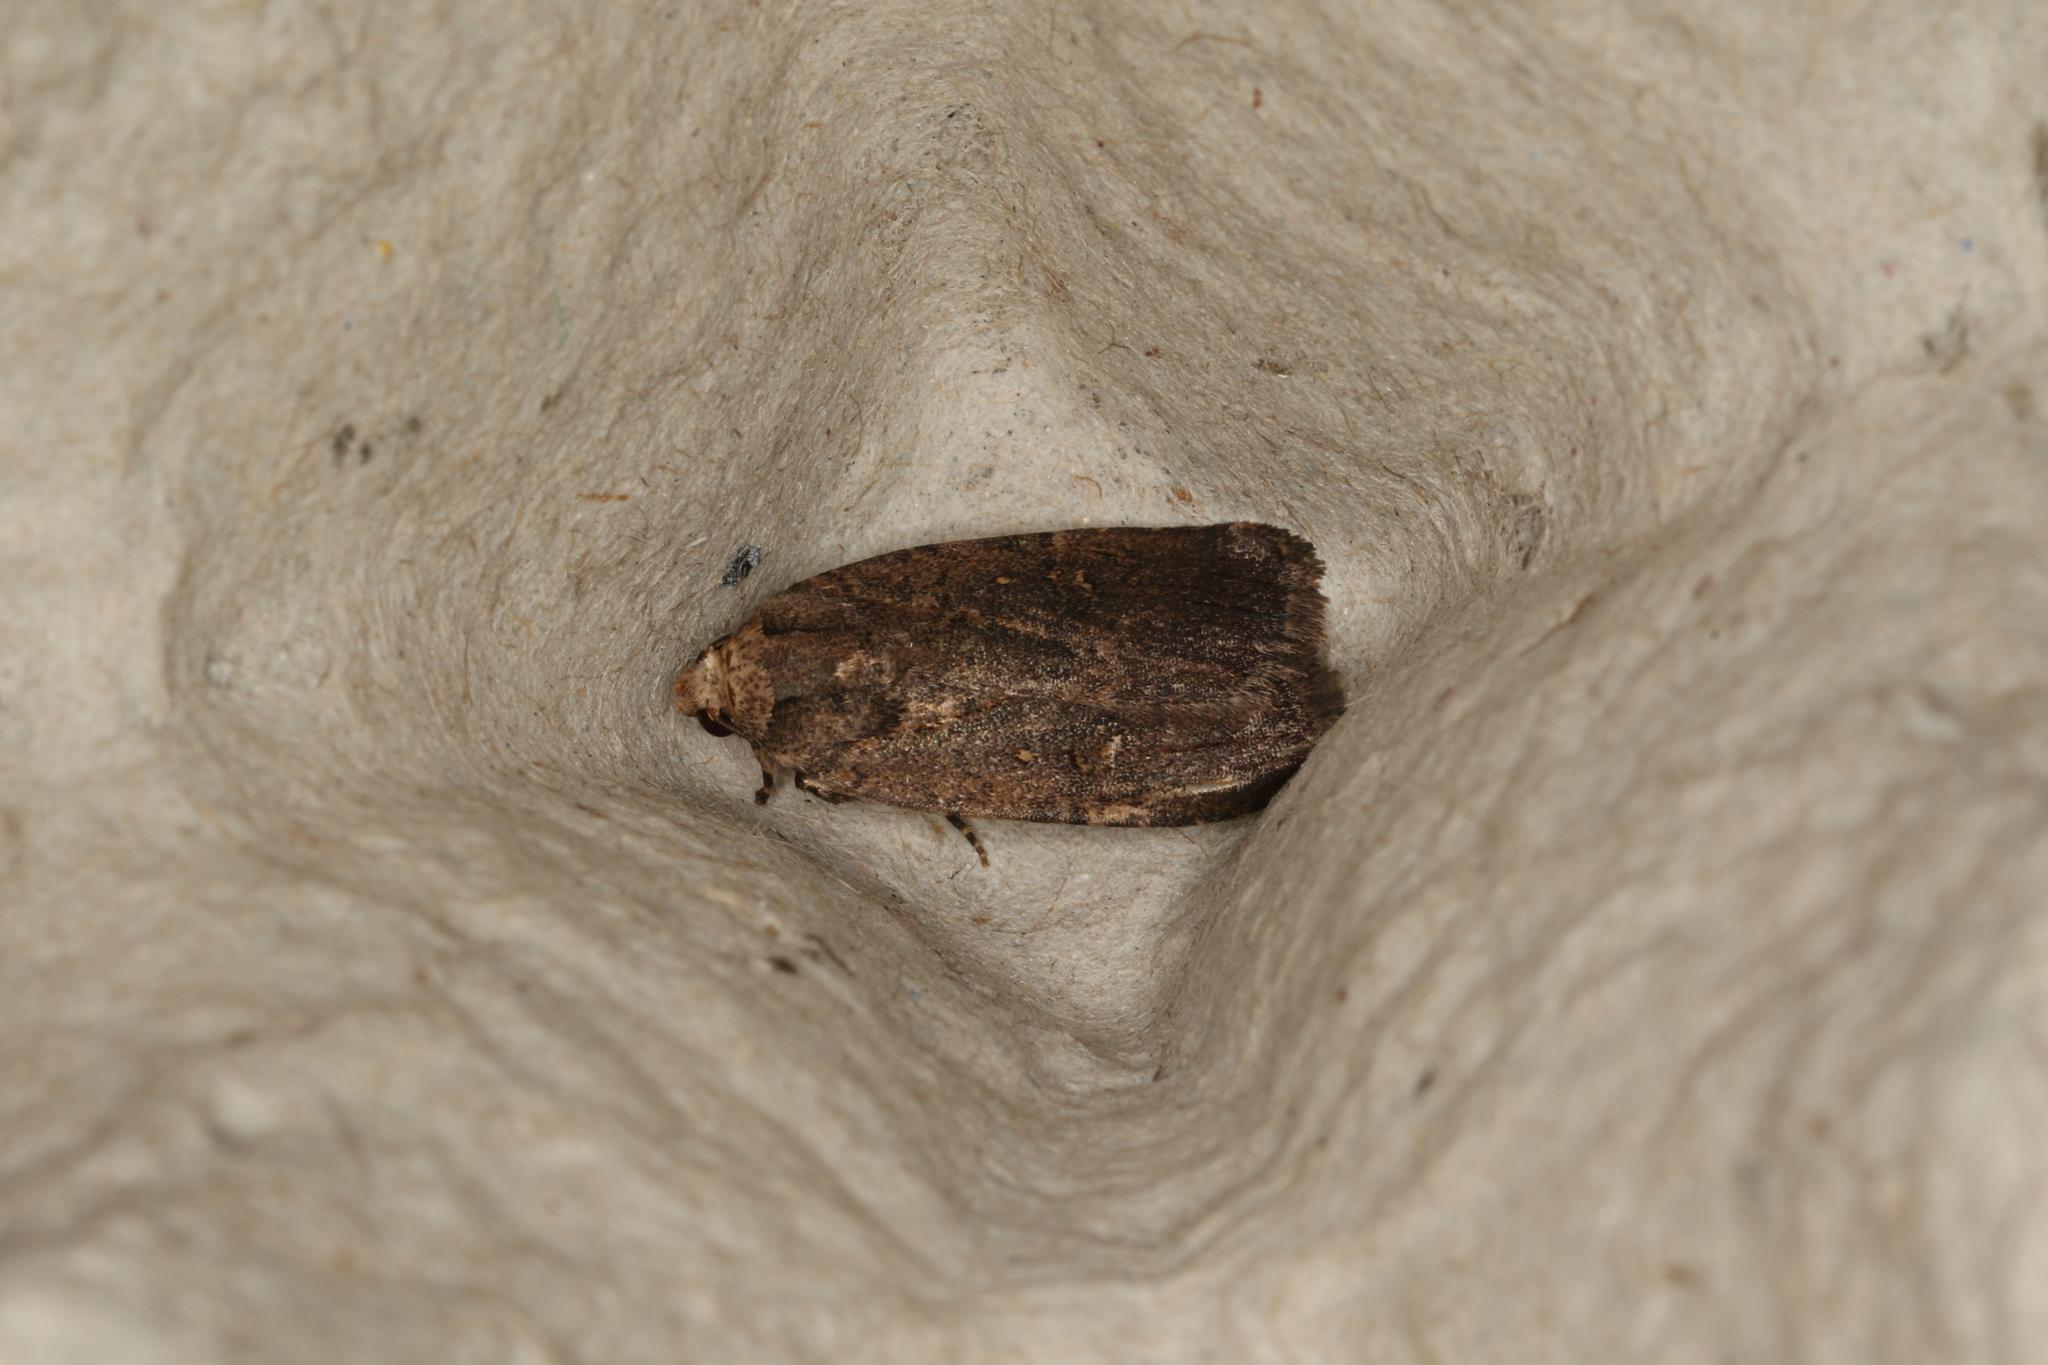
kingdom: Animalia
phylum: Arthropoda
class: Insecta
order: Lepidoptera
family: Noctuidae
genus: Thoracolopha
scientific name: Thoracolopha nycteris
